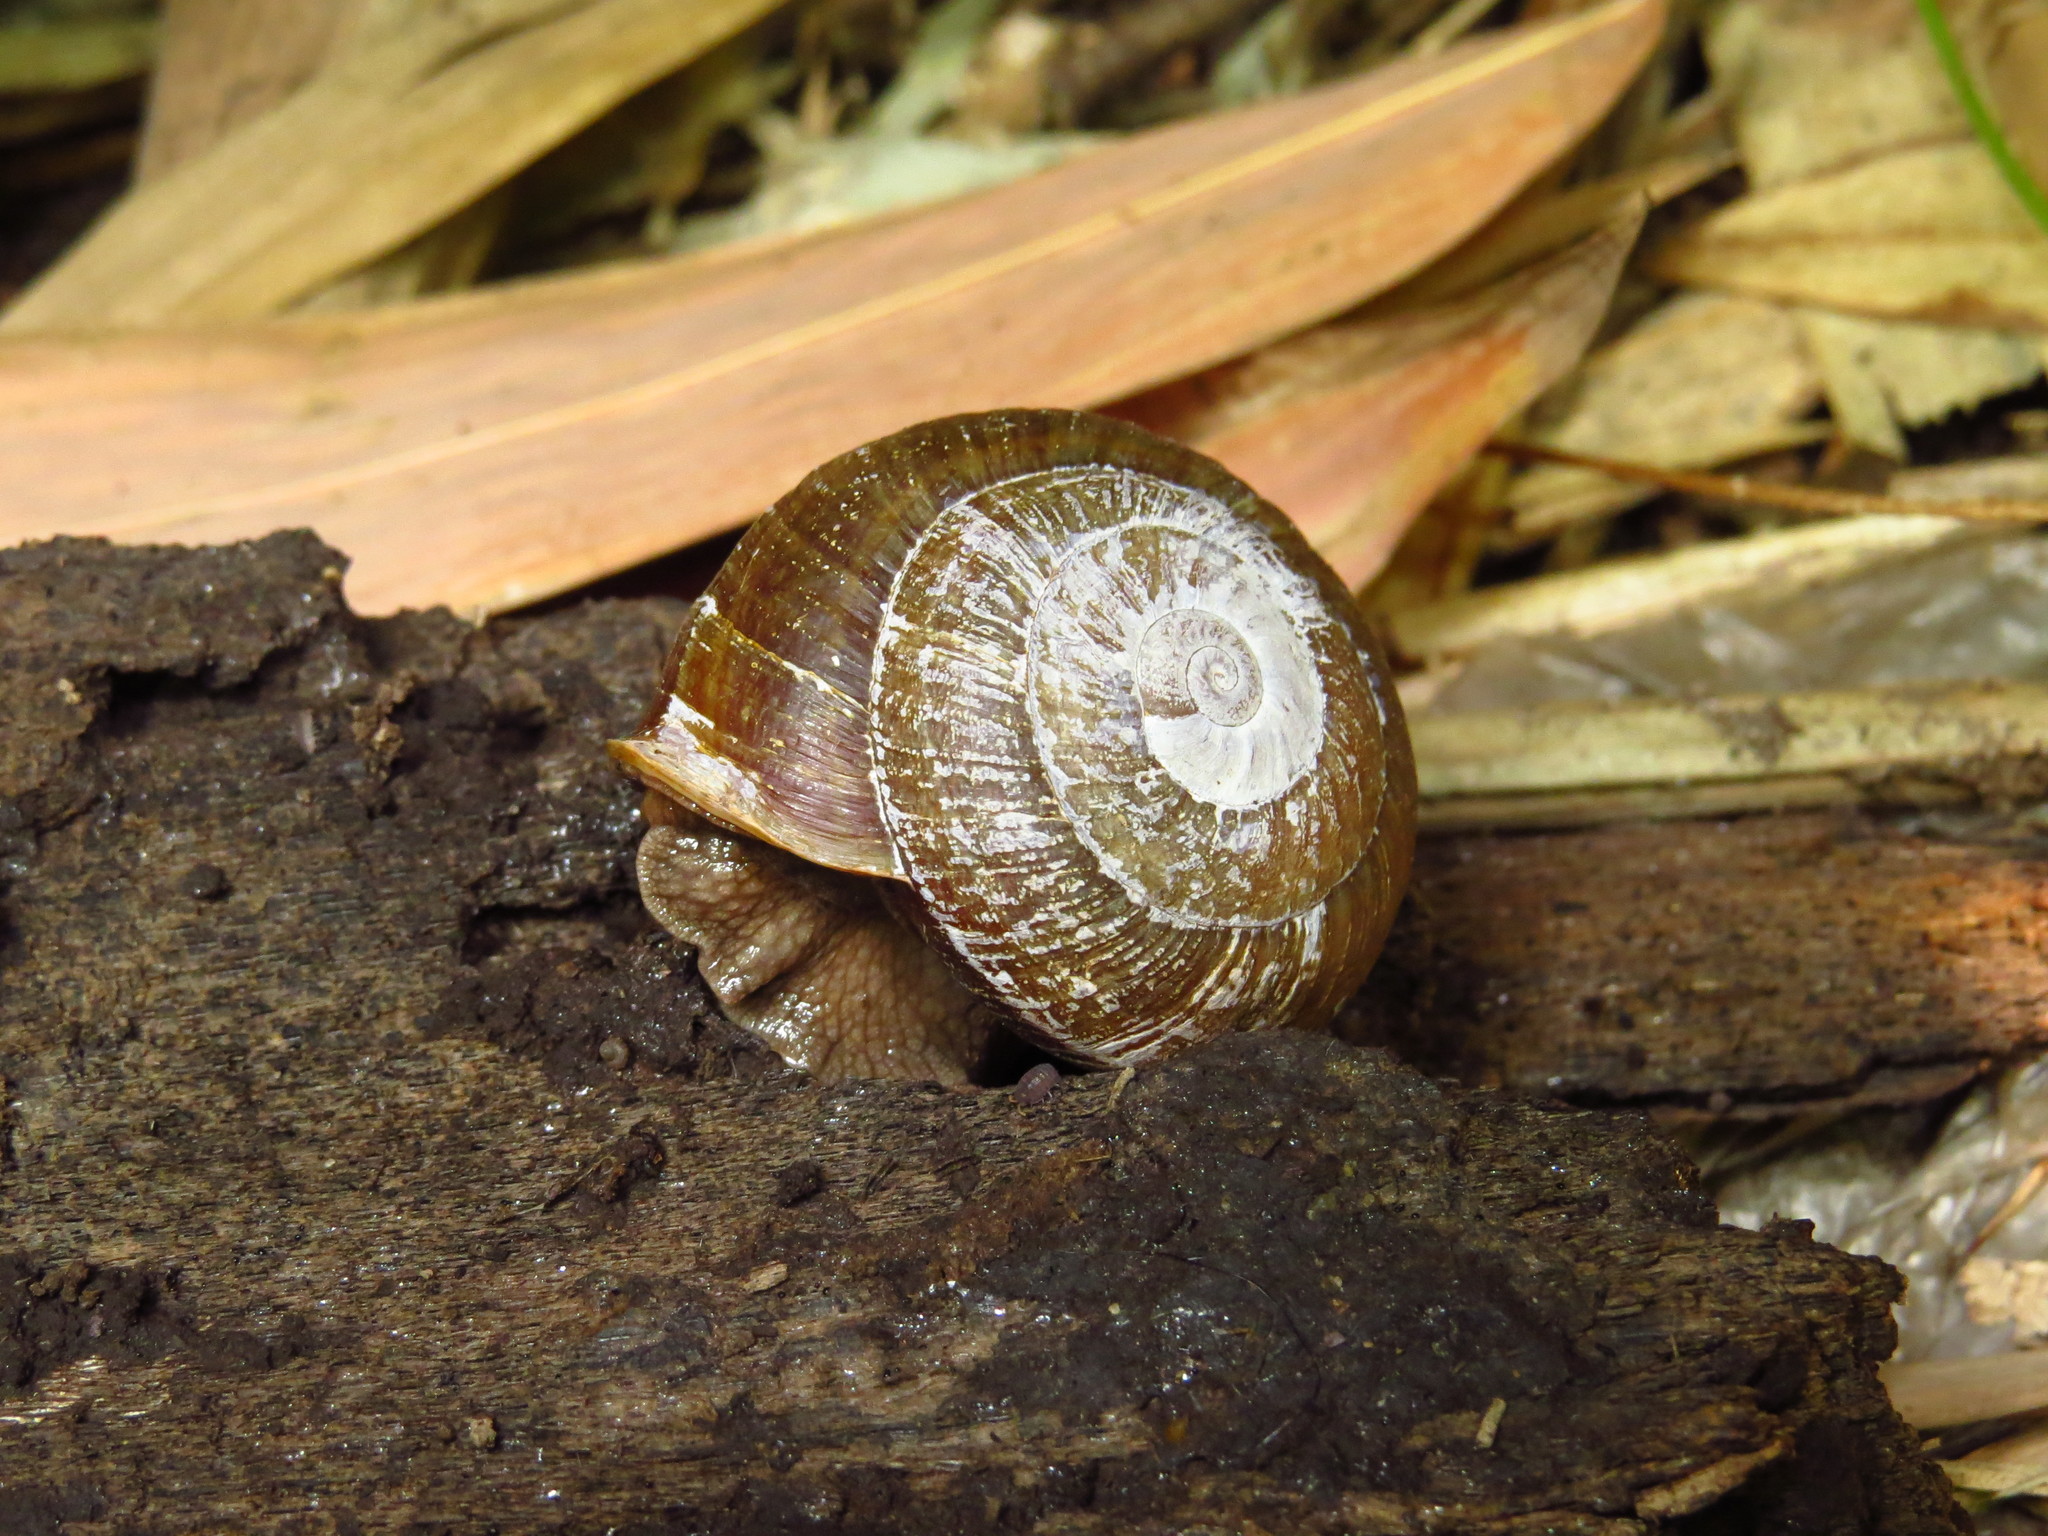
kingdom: Animalia
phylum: Mollusca
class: Gastropoda
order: Stylommatophora
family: Camaenidae
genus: Camaena
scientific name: Camaena cicatricosa
